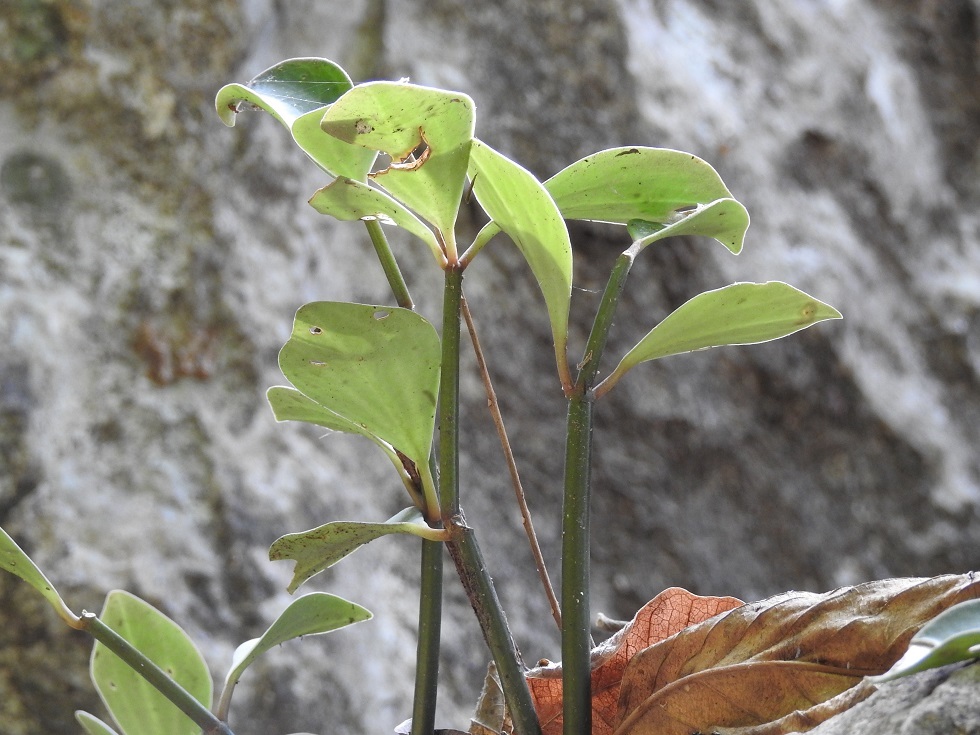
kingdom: Plantae
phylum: Tracheophyta
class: Magnoliopsida
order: Piperales
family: Piperaceae
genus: Peperomia
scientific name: Peperomia angustata
